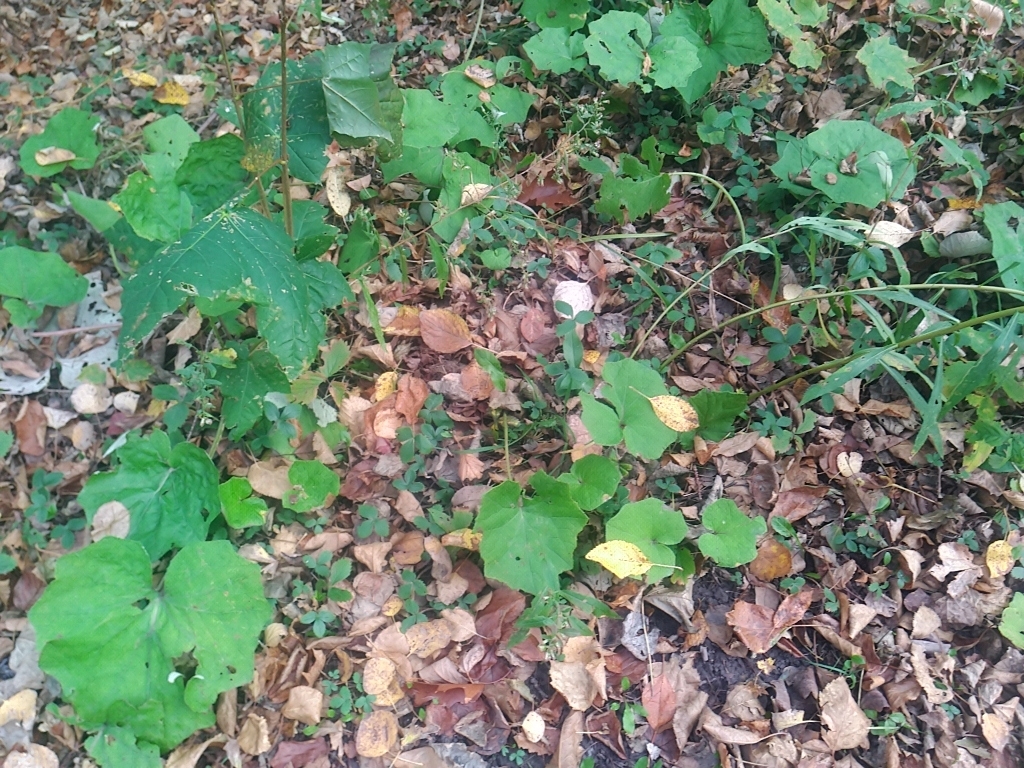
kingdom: Plantae
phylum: Tracheophyta
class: Magnoliopsida
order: Asterales
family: Asteraceae
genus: Tussilago
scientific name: Tussilago farfara
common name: Coltsfoot
